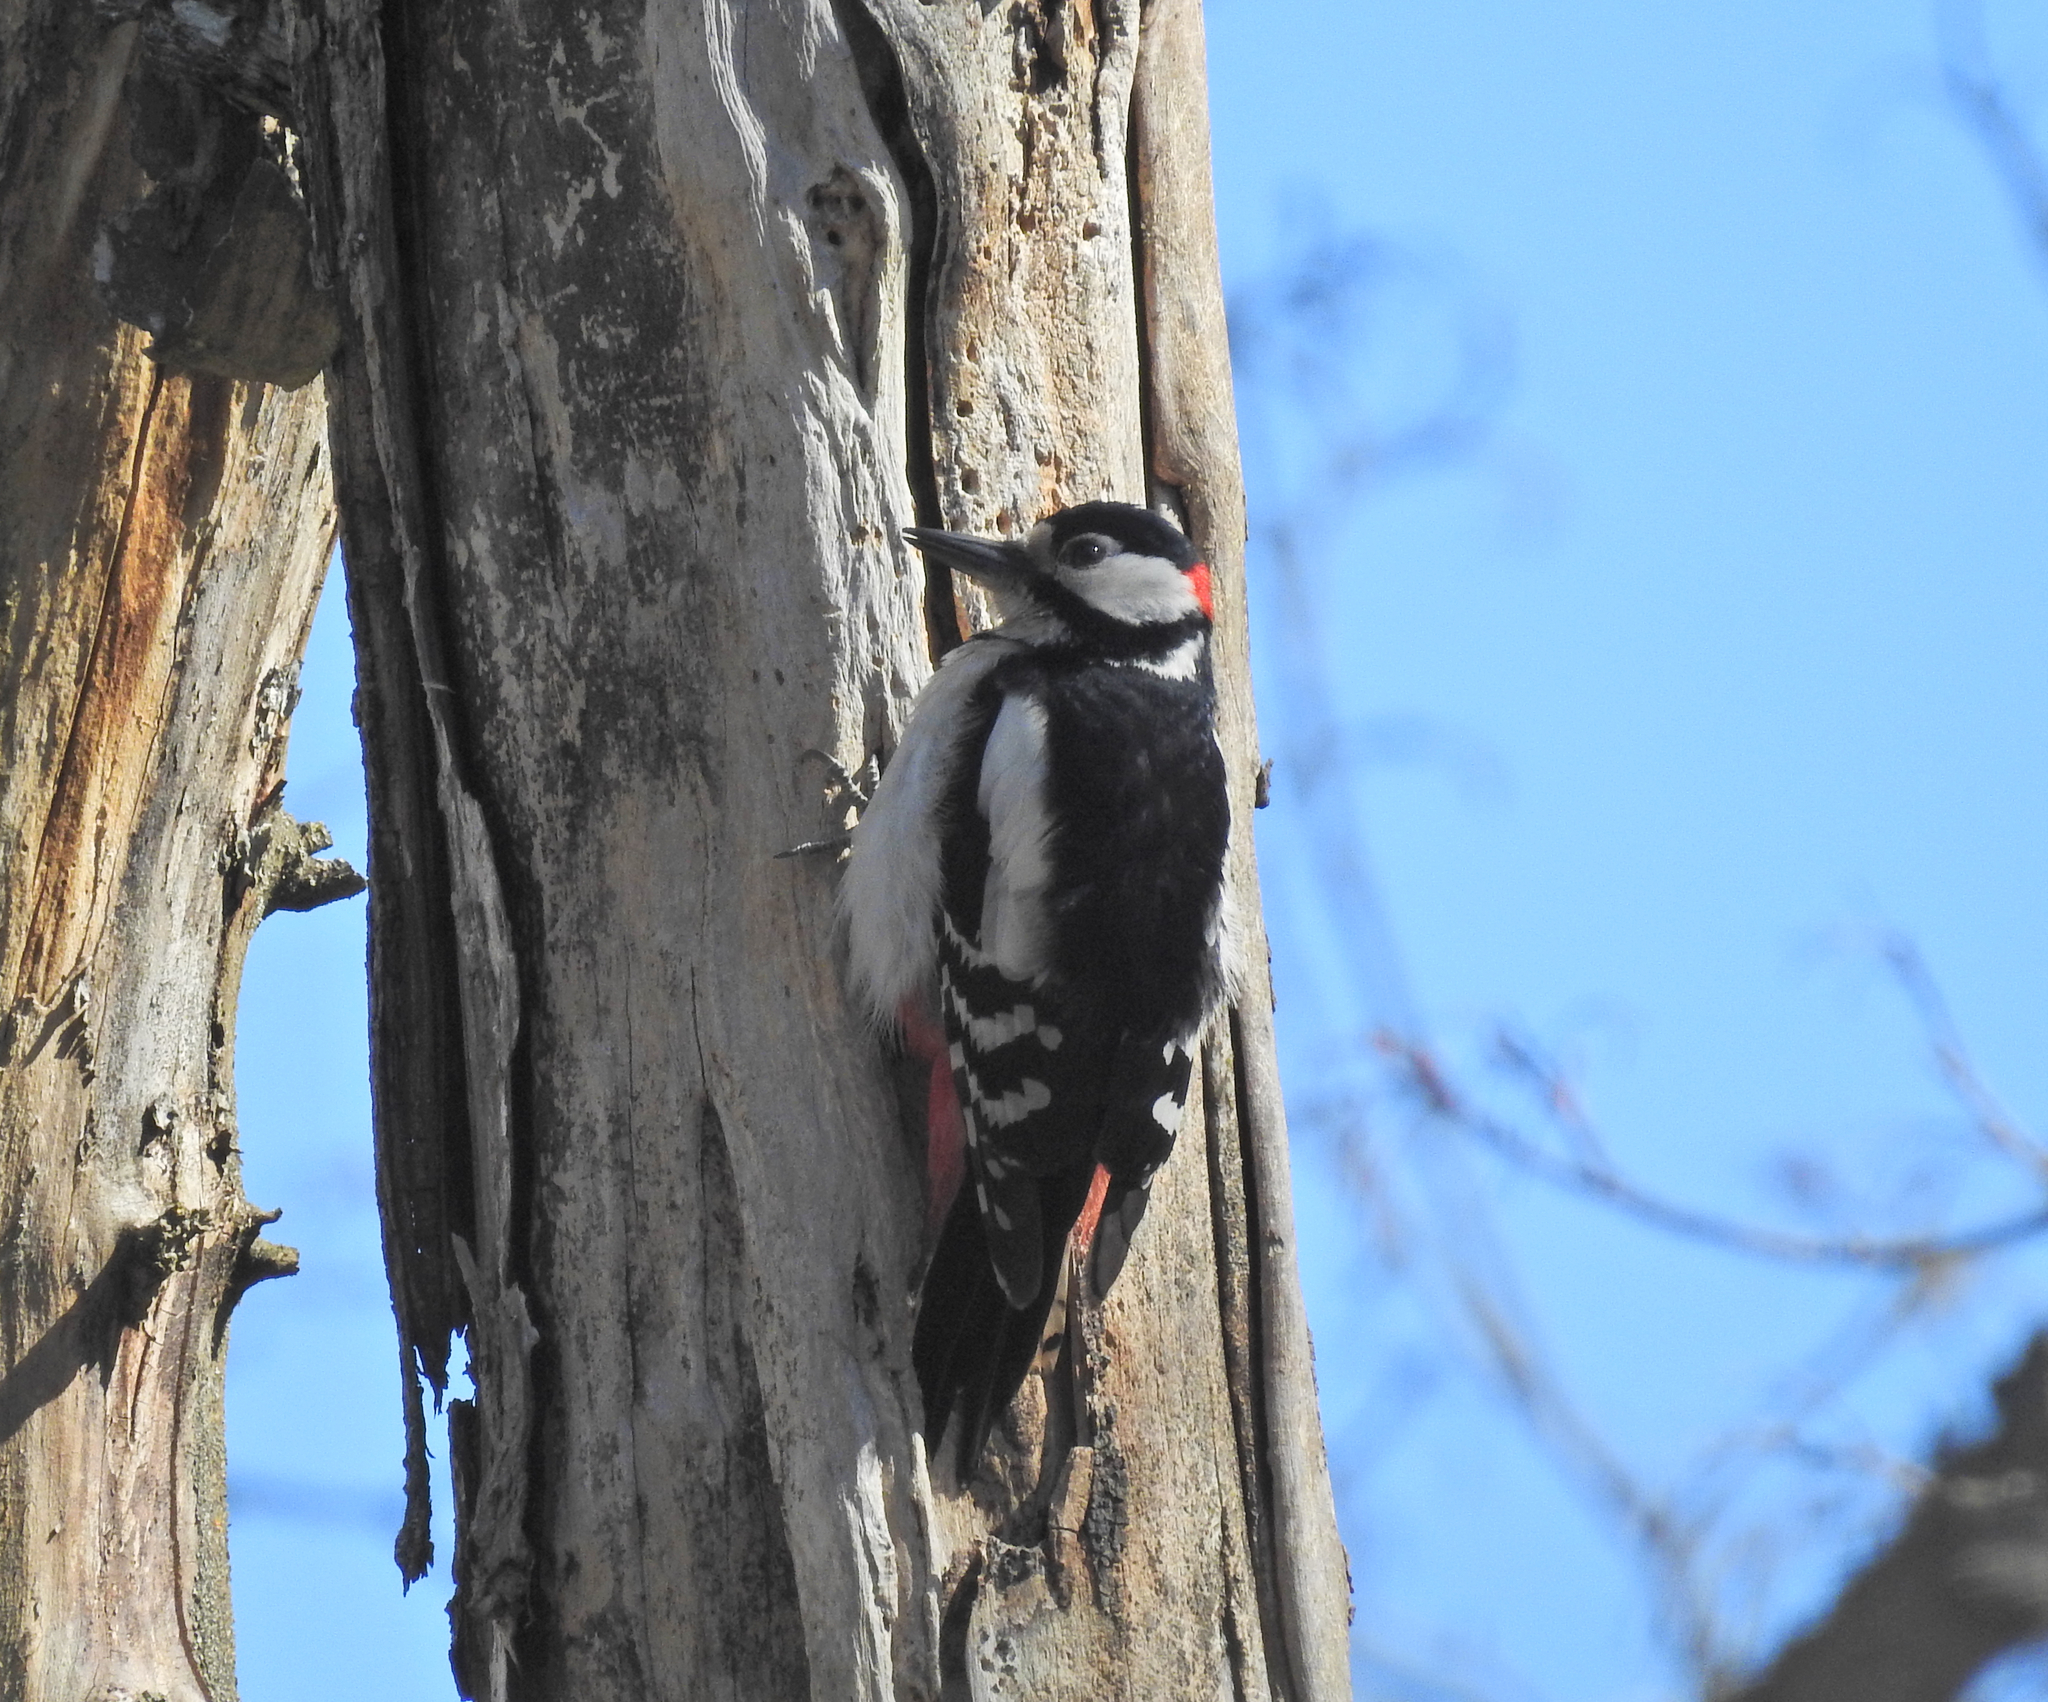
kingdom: Animalia
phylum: Chordata
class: Aves
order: Piciformes
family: Picidae
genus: Dendrocopos
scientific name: Dendrocopos major
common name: Great spotted woodpecker
